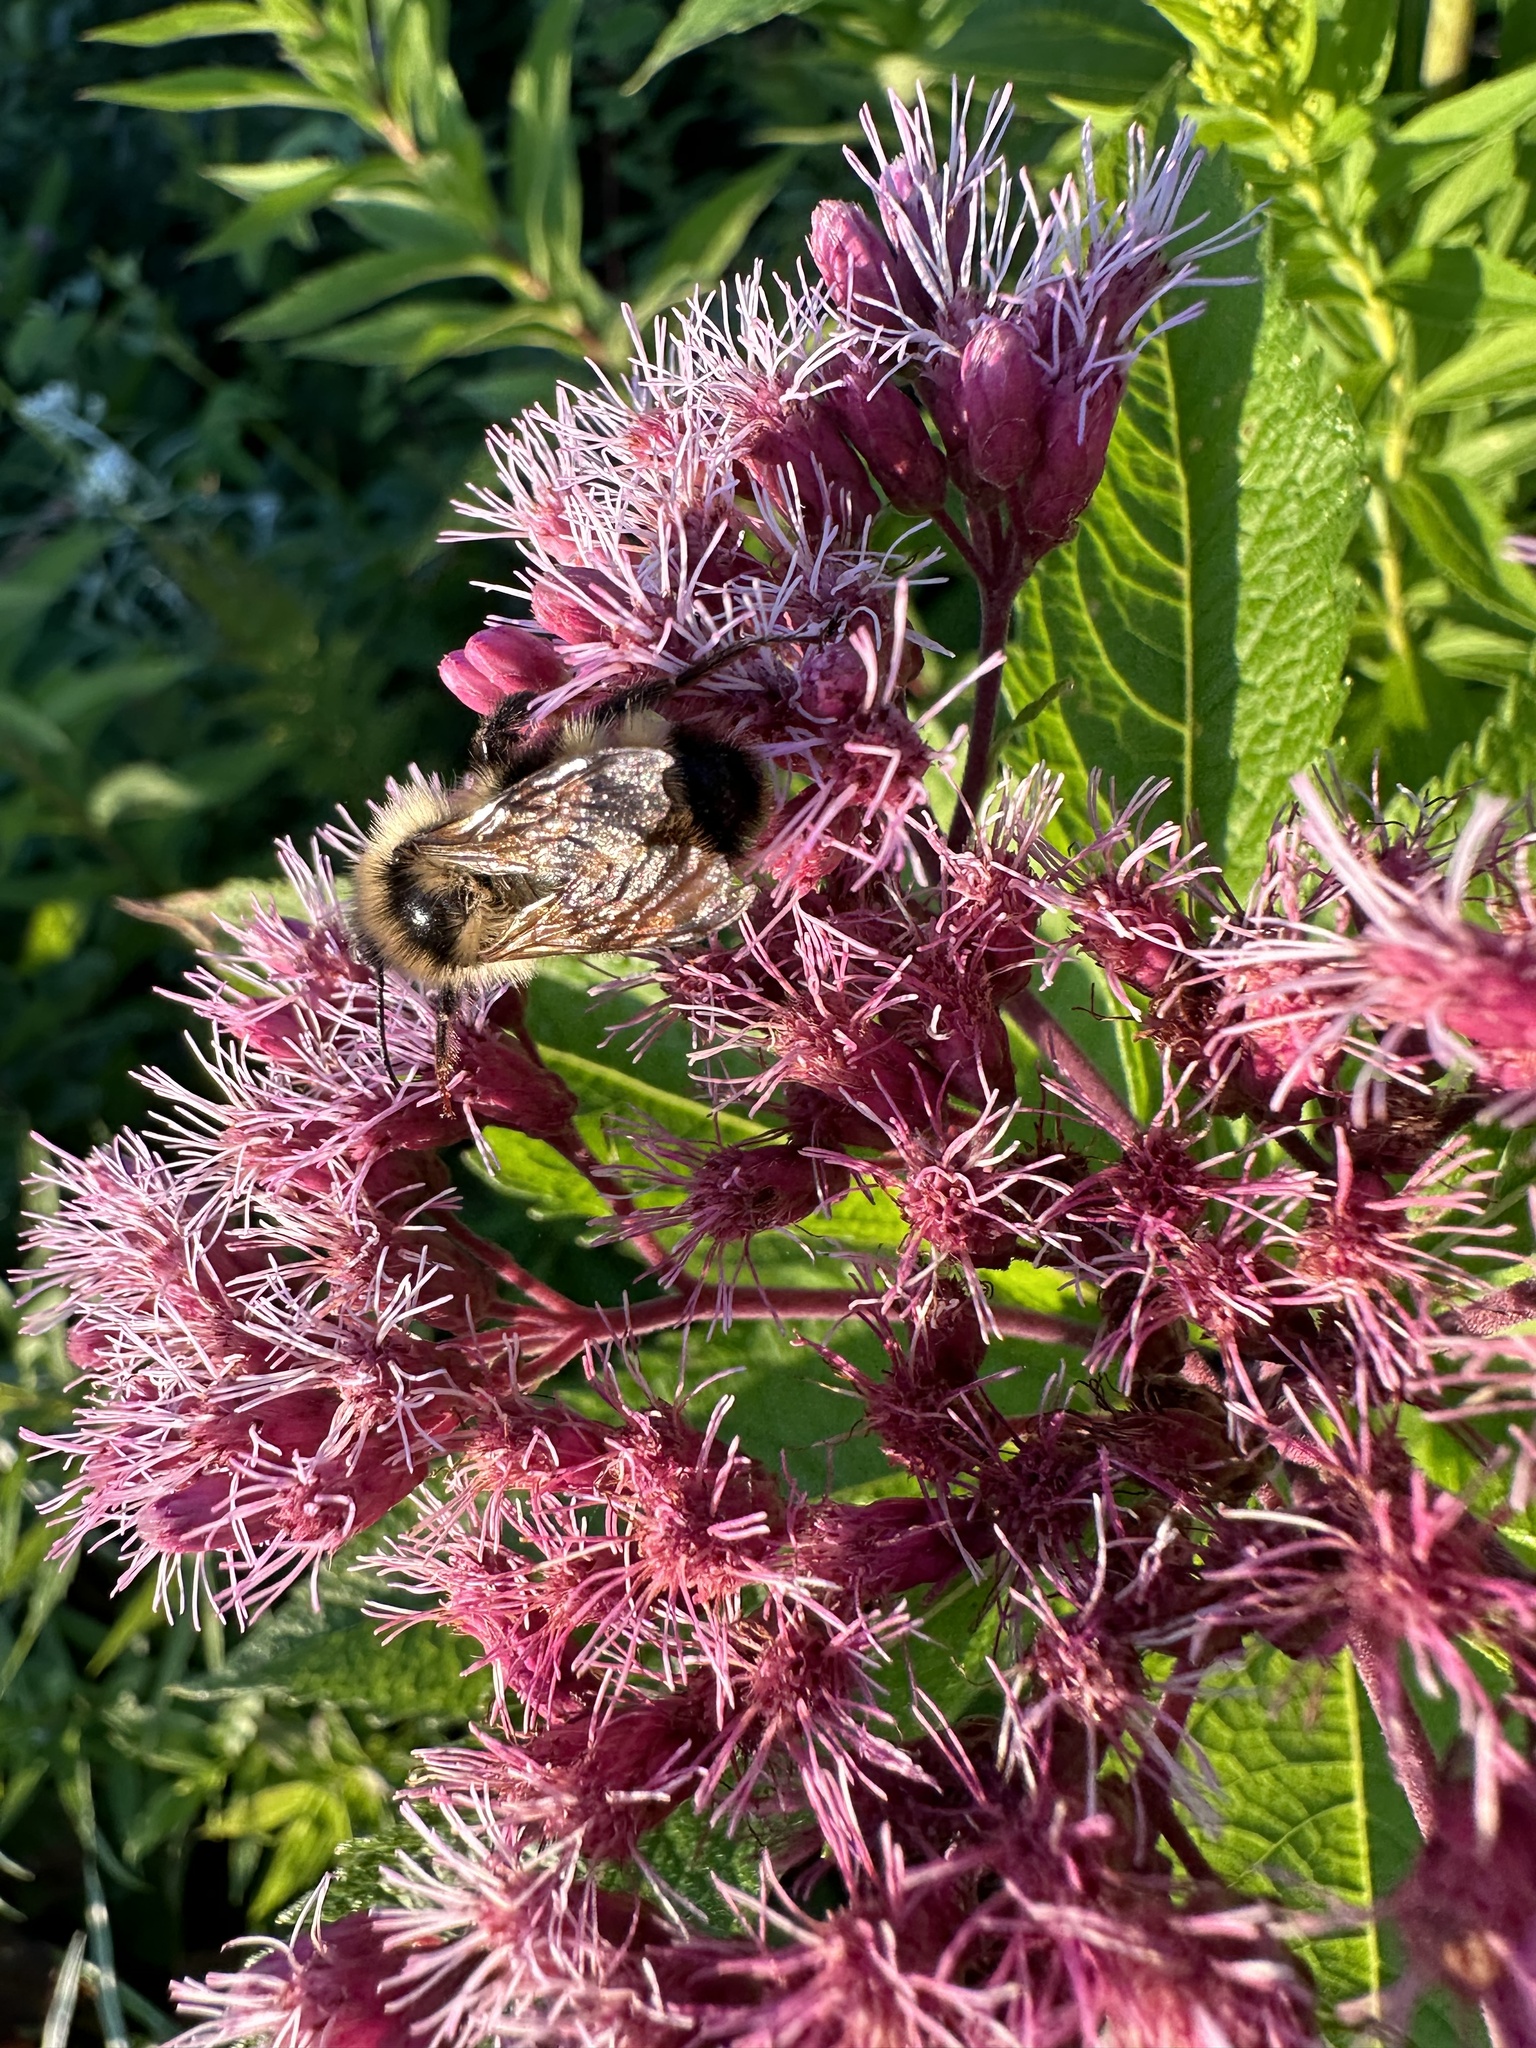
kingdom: Animalia
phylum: Arthropoda
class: Insecta
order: Hymenoptera
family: Apidae
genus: Bombus
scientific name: Bombus flavidus
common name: Fernald cuckoo bumble bee
